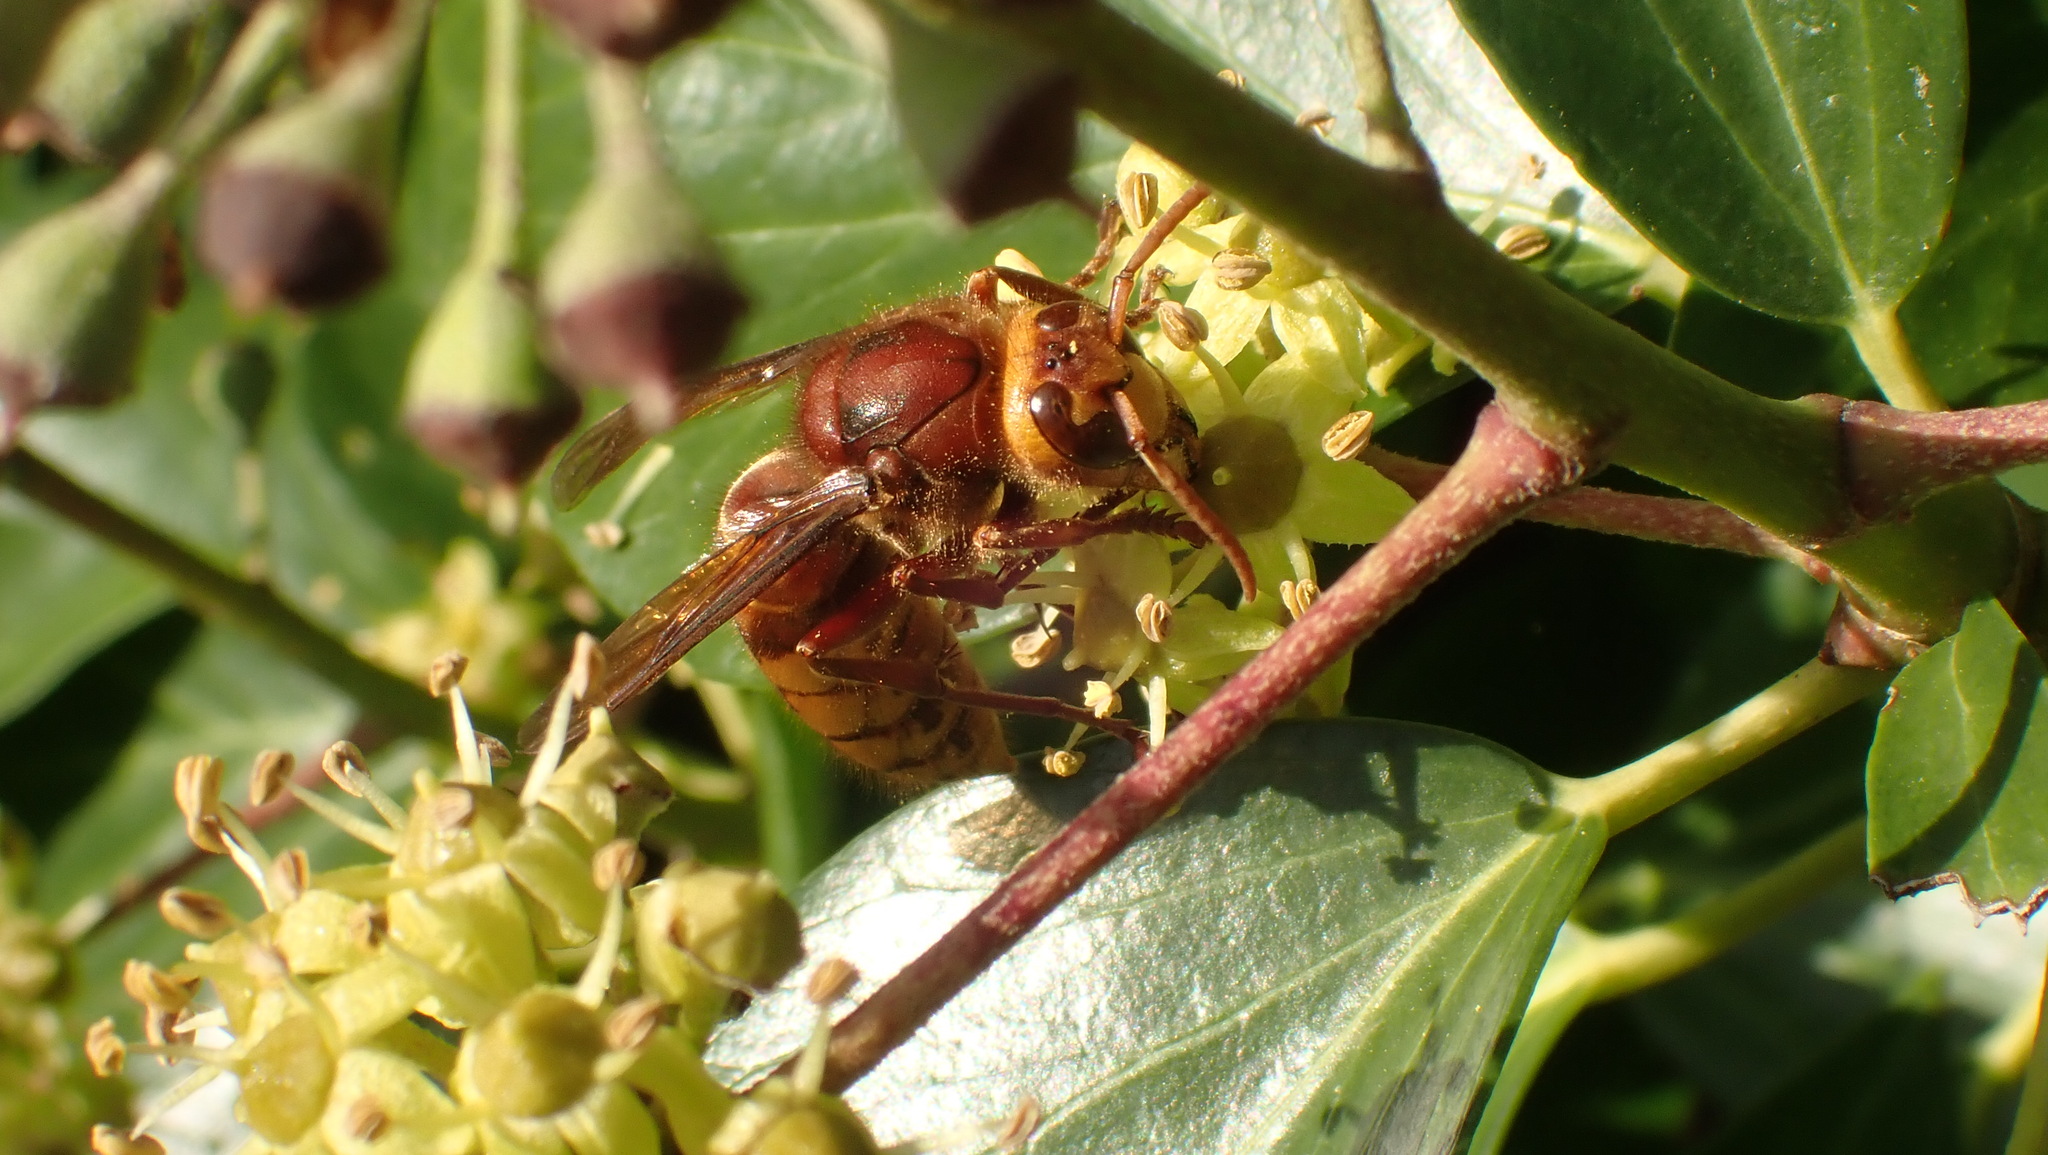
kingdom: Animalia
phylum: Arthropoda
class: Insecta
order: Hymenoptera
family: Vespidae
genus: Vespa
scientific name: Vespa crabro
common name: Hornet
